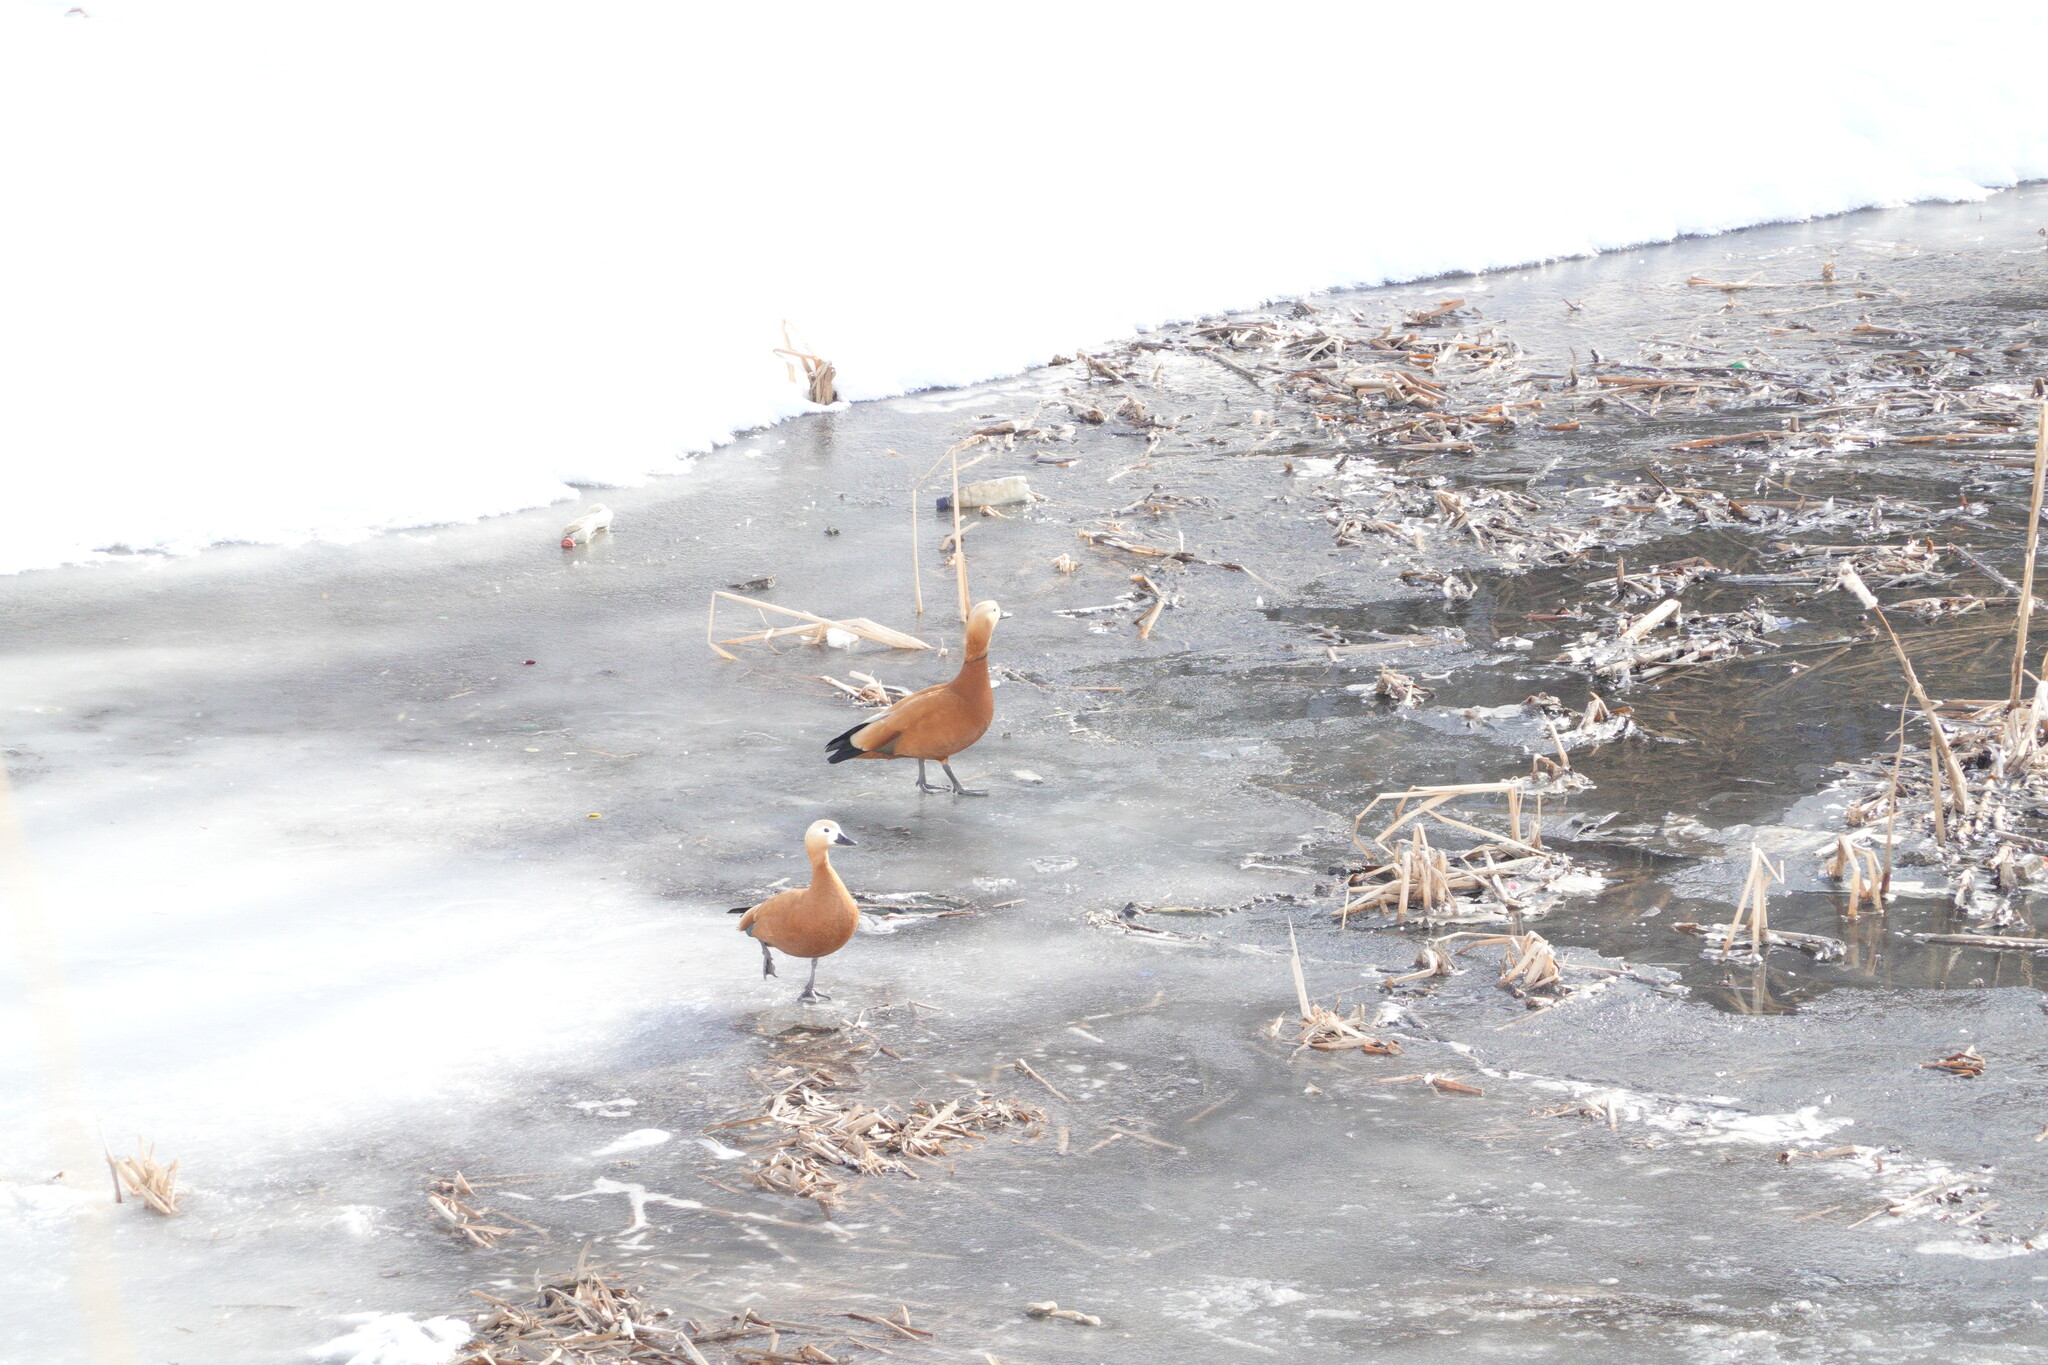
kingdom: Animalia
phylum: Chordata
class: Aves
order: Anseriformes
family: Anatidae
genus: Tadorna
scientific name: Tadorna ferruginea
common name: Ruddy shelduck
